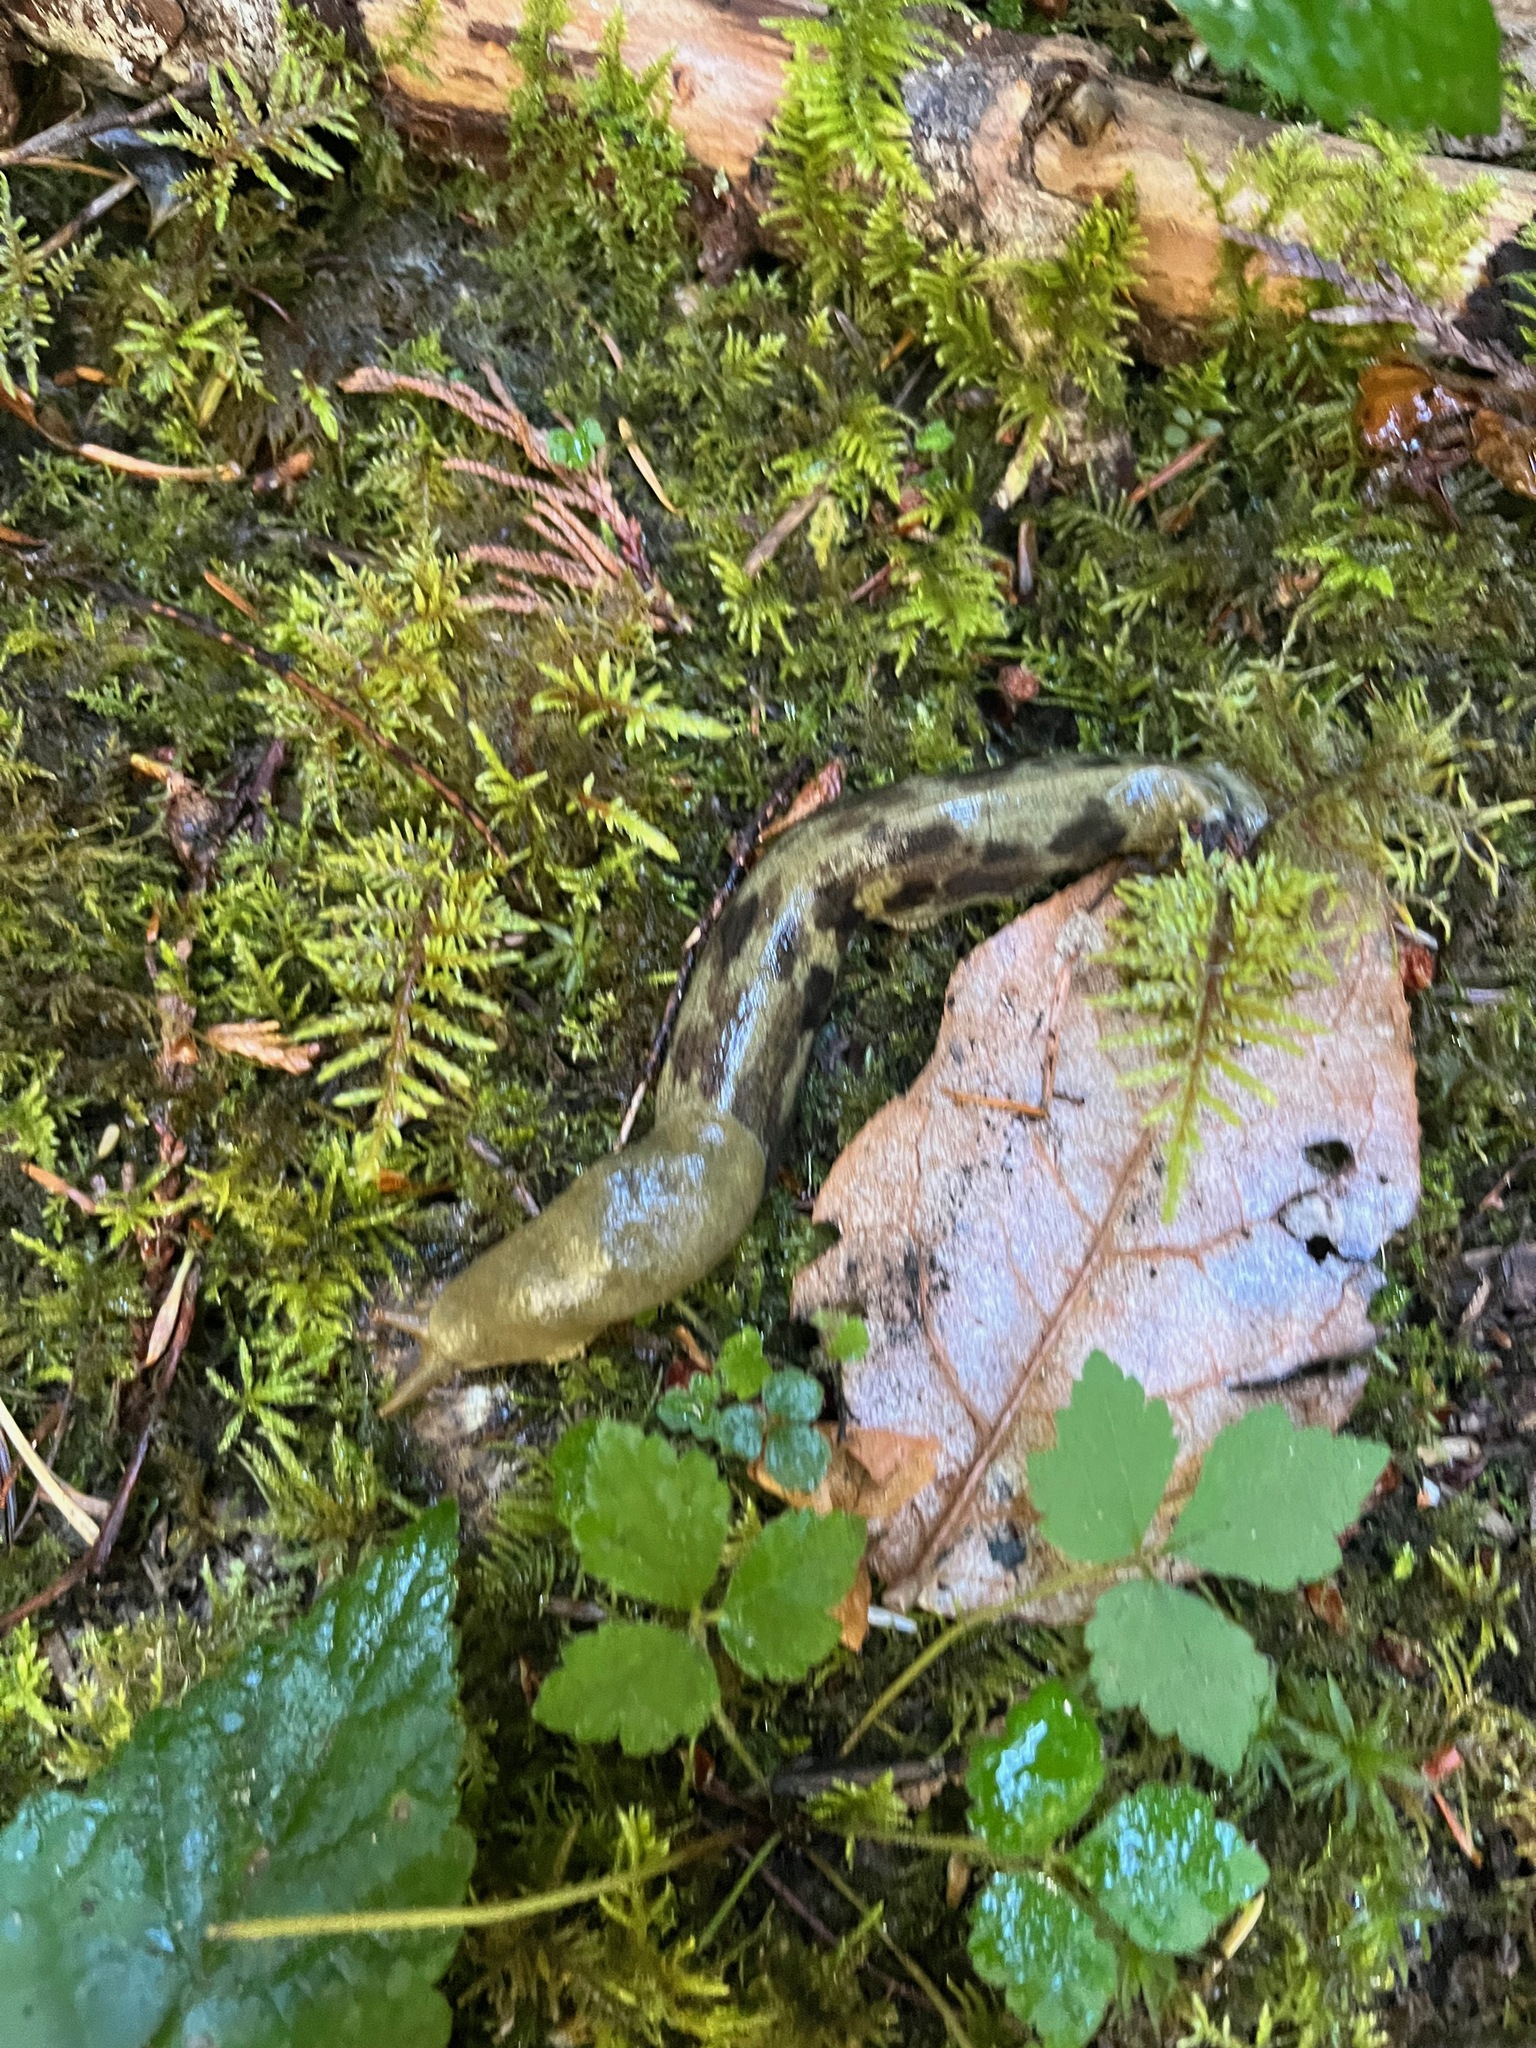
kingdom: Animalia
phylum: Mollusca
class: Gastropoda
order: Stylommatophora
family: Ariolimacidae
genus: Ariolimax
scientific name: Ariolimax columbianus
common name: Pacific banana slug
